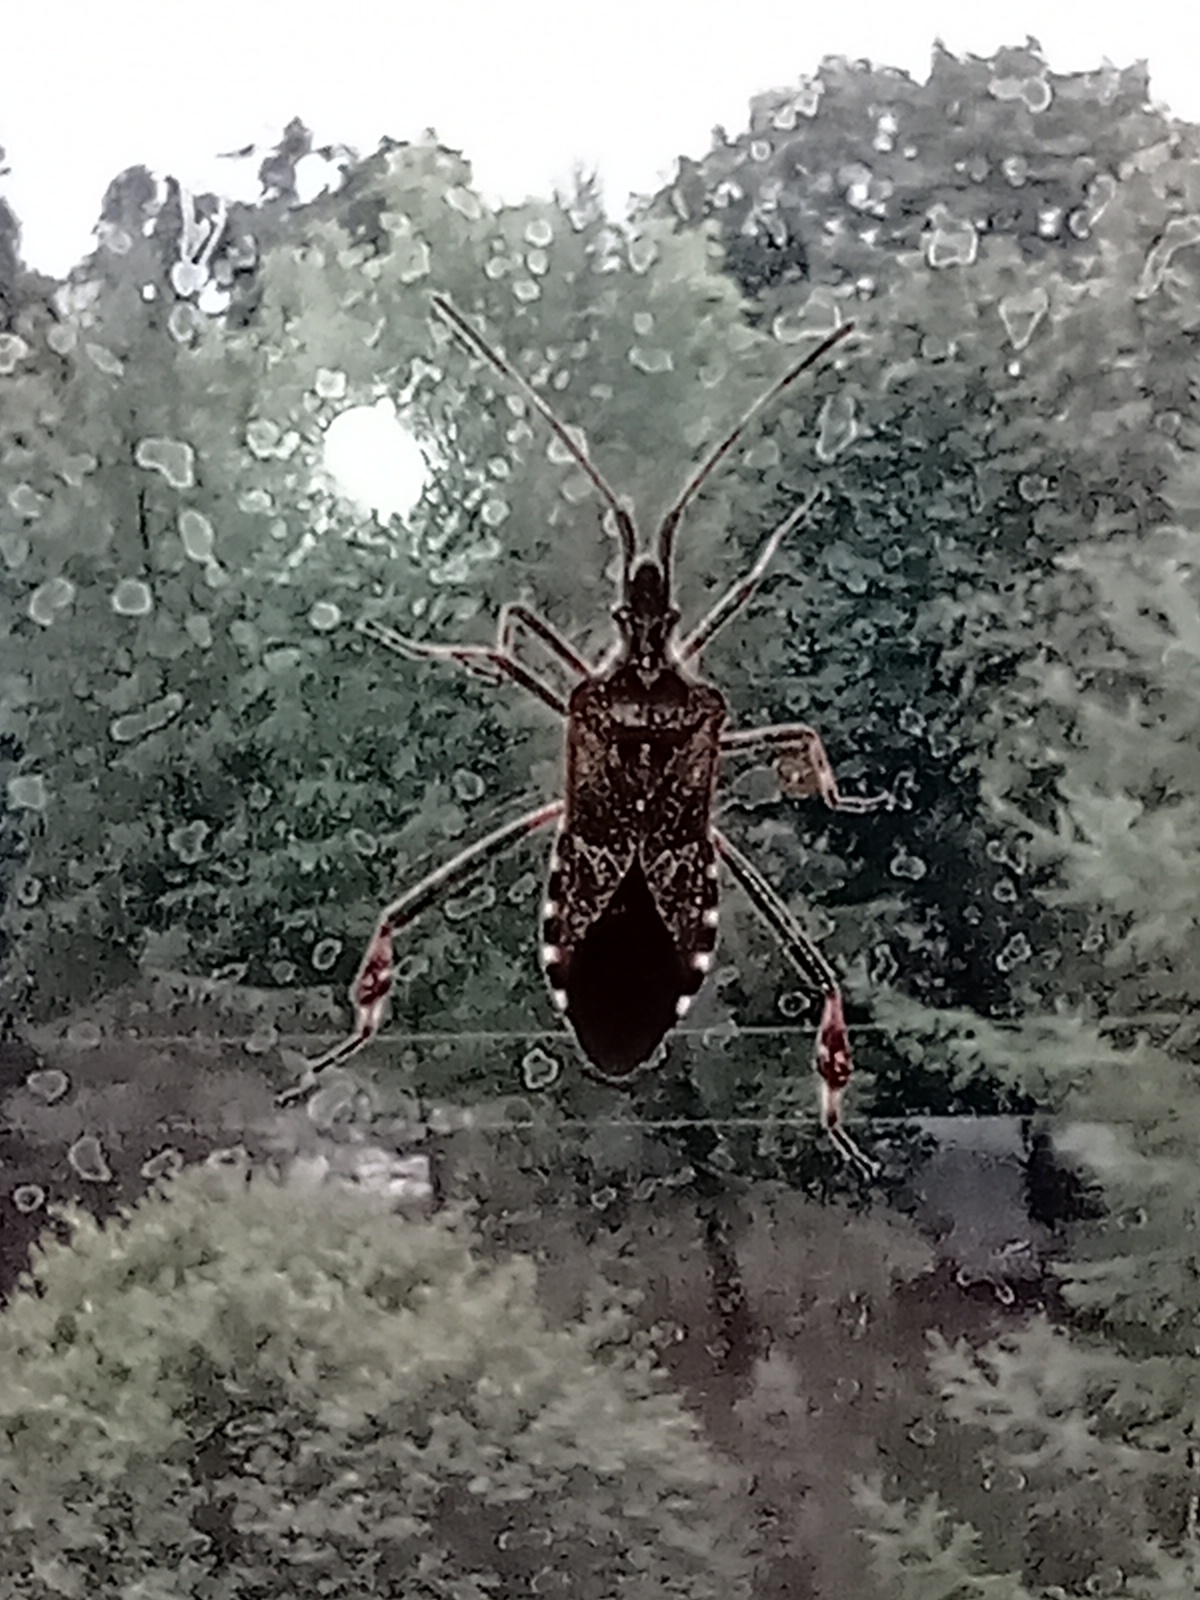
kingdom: Animalia
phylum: Arthropoda
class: Insecta
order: Hemiptera
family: Coreidae
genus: Leptoglossus
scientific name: Leptoglossus occidentalis
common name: Western conifer-seed bug
